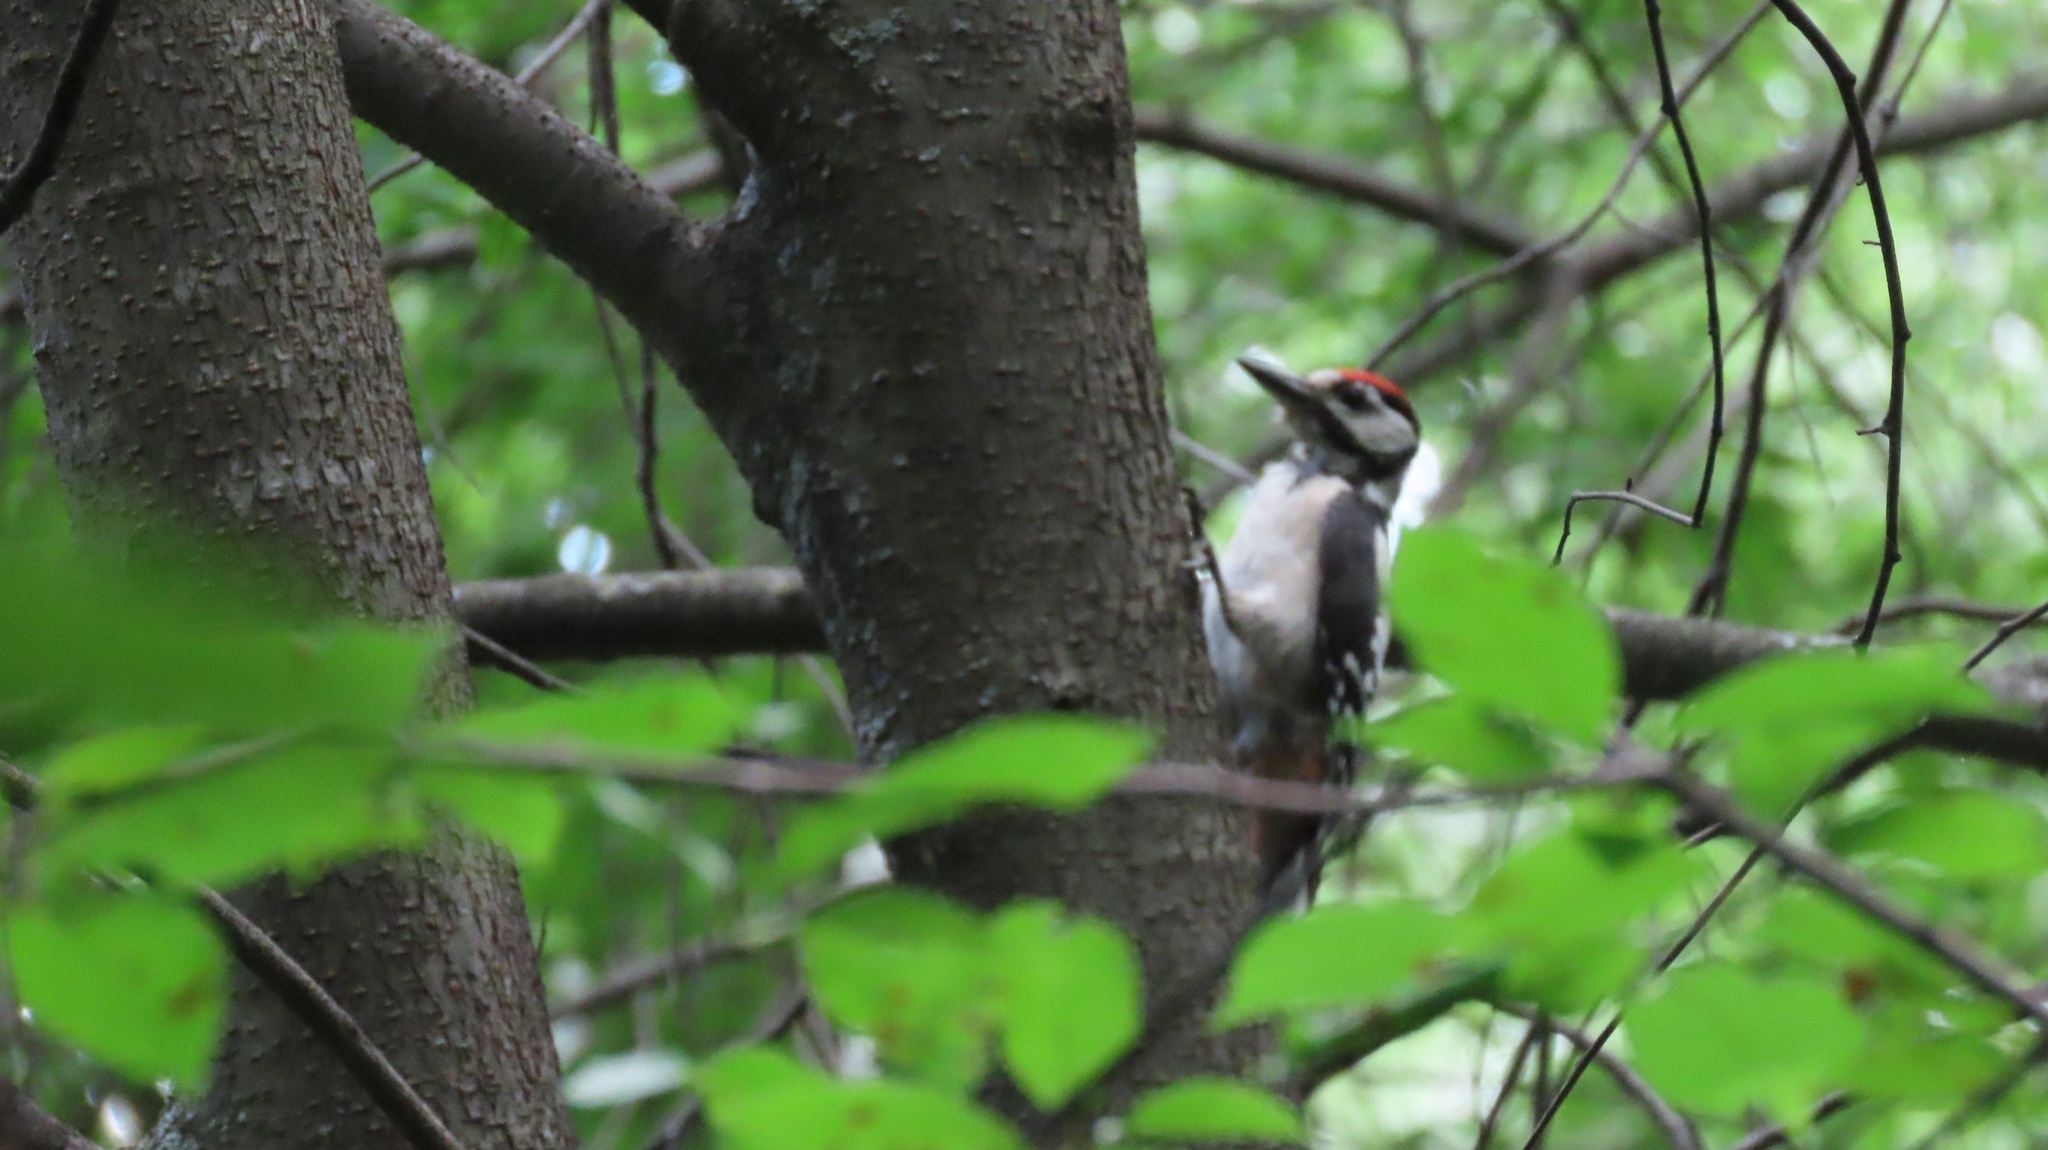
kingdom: Animalia
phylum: Chordata
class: Aves
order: Piciformes
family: Picidae
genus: Dendrocopos
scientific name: Dendrocopos major
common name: Great spotted woodpecker
